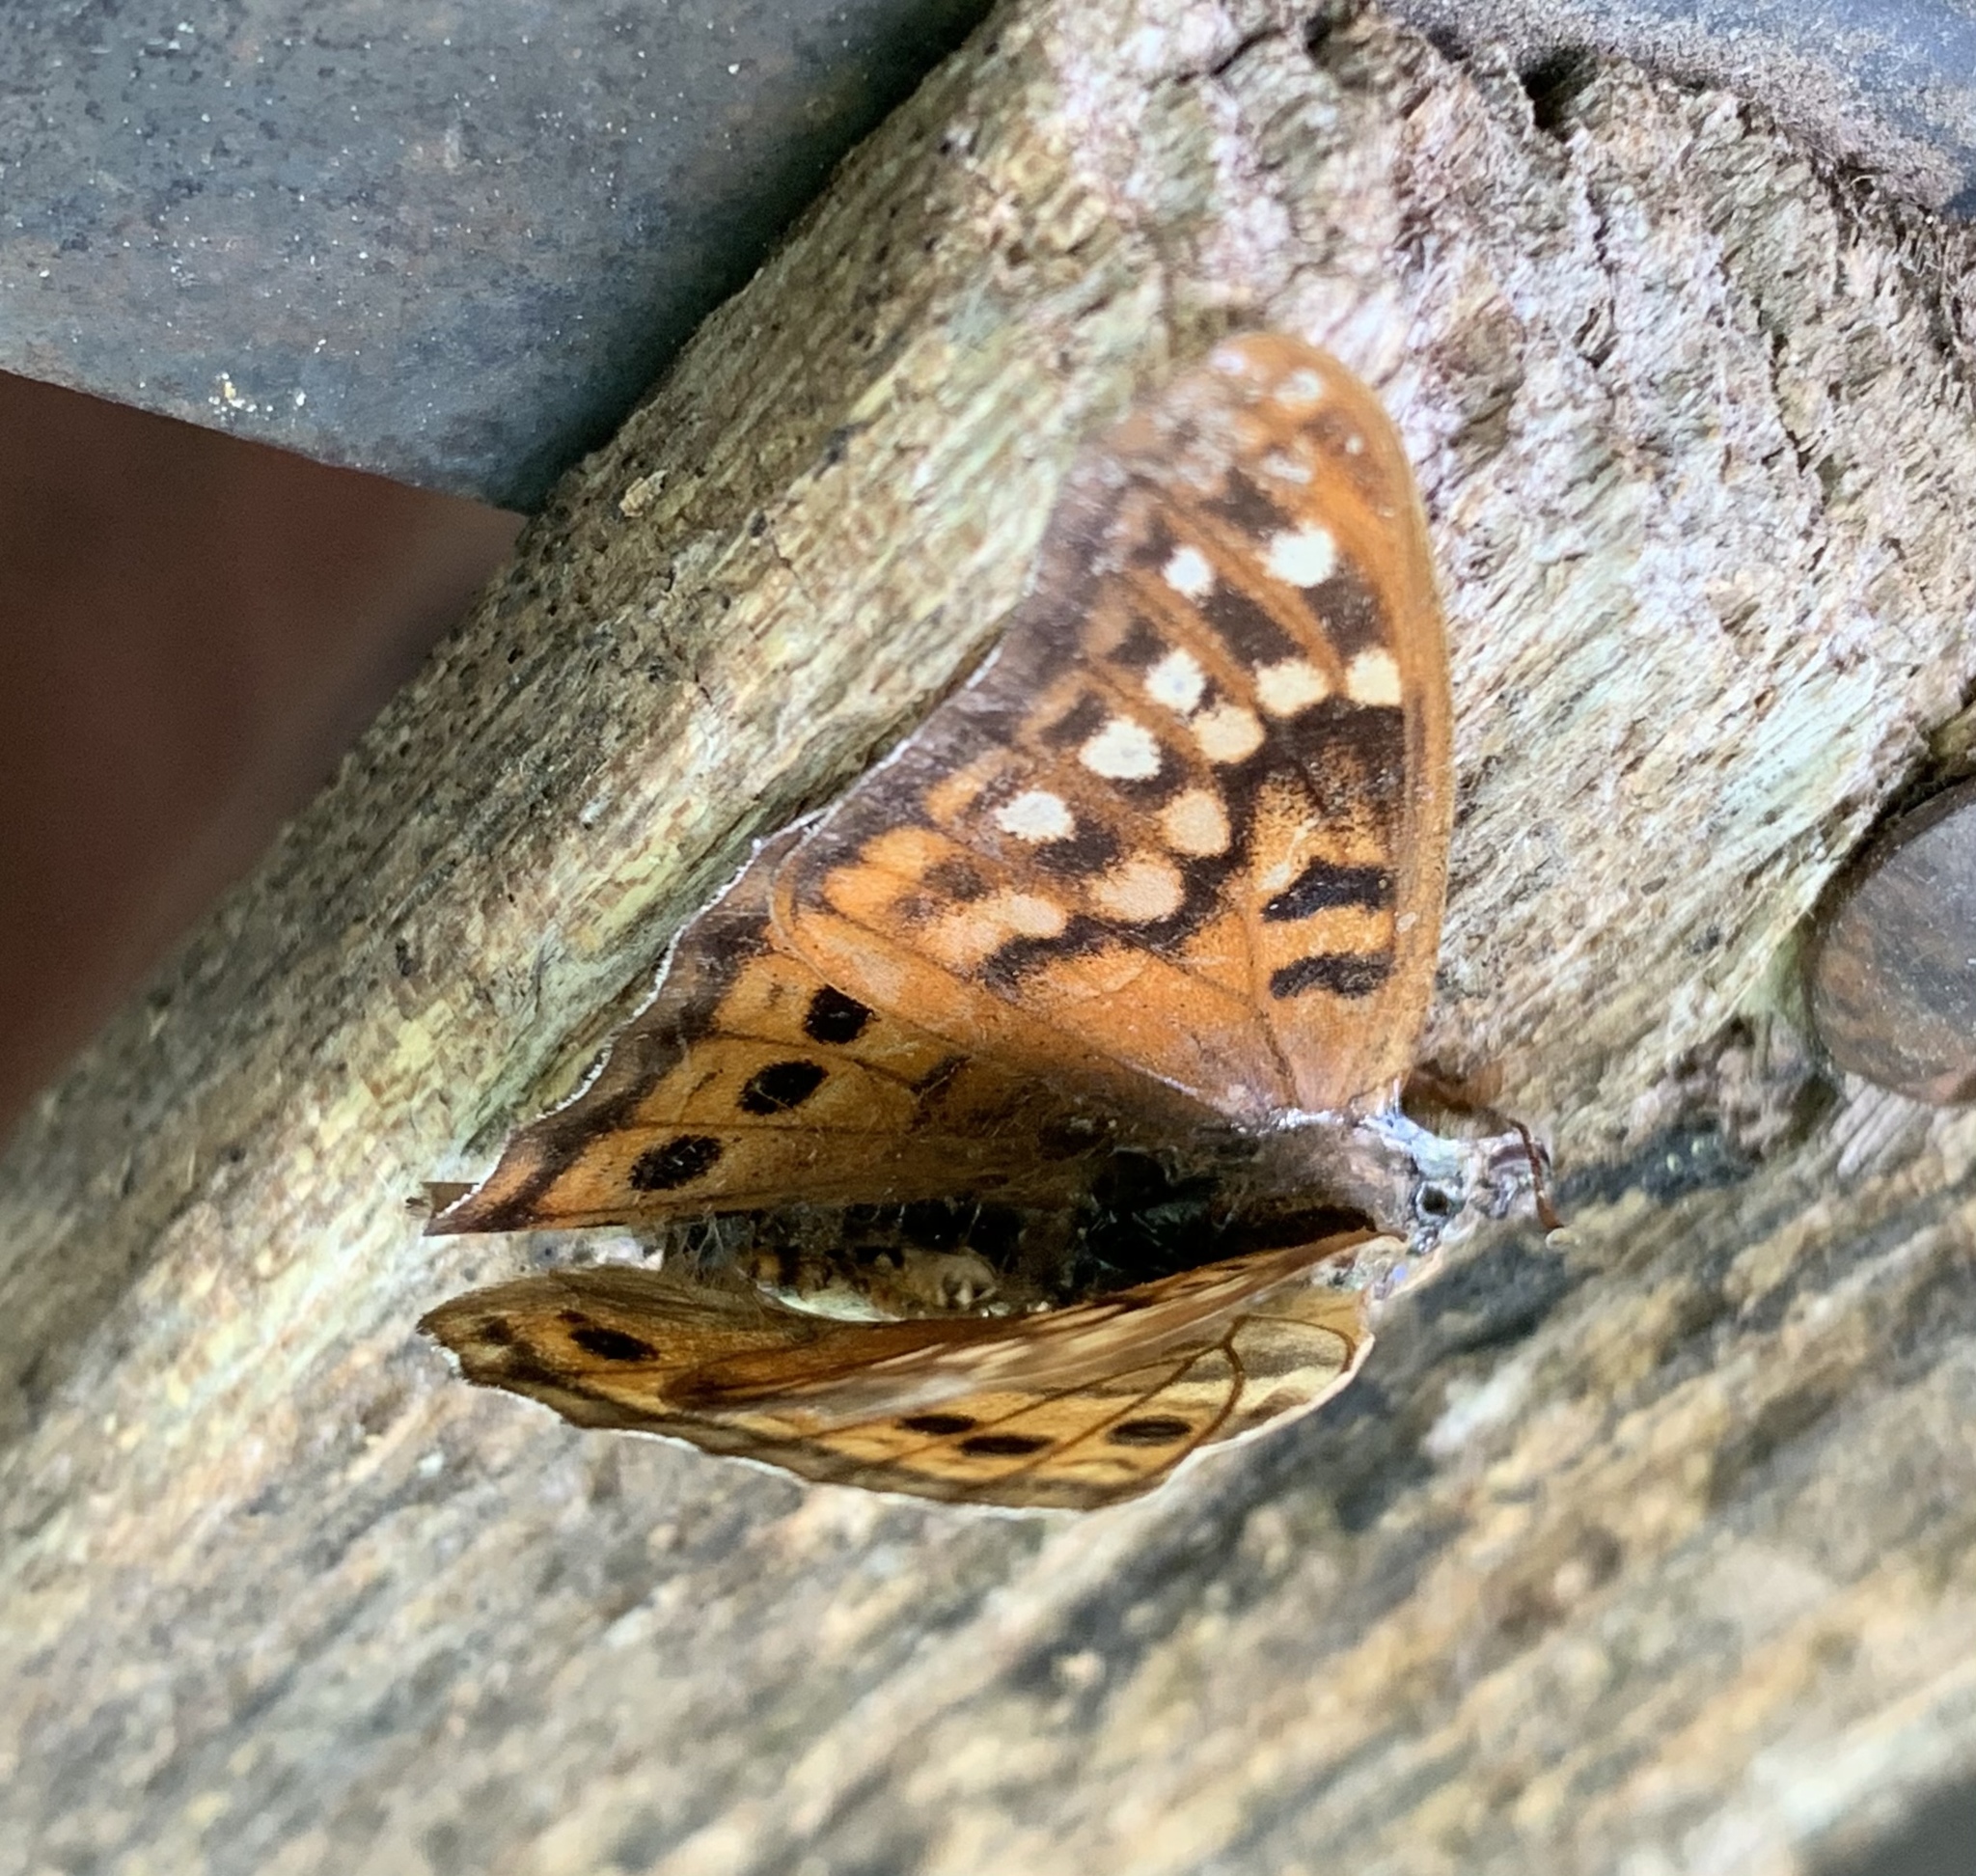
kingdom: Animalia
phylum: Arthropoda
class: Insecta
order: Lepidoptera
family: Nymphalidae
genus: Asterocampa
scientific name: Asterocampa clyton
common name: Tawny emperor
